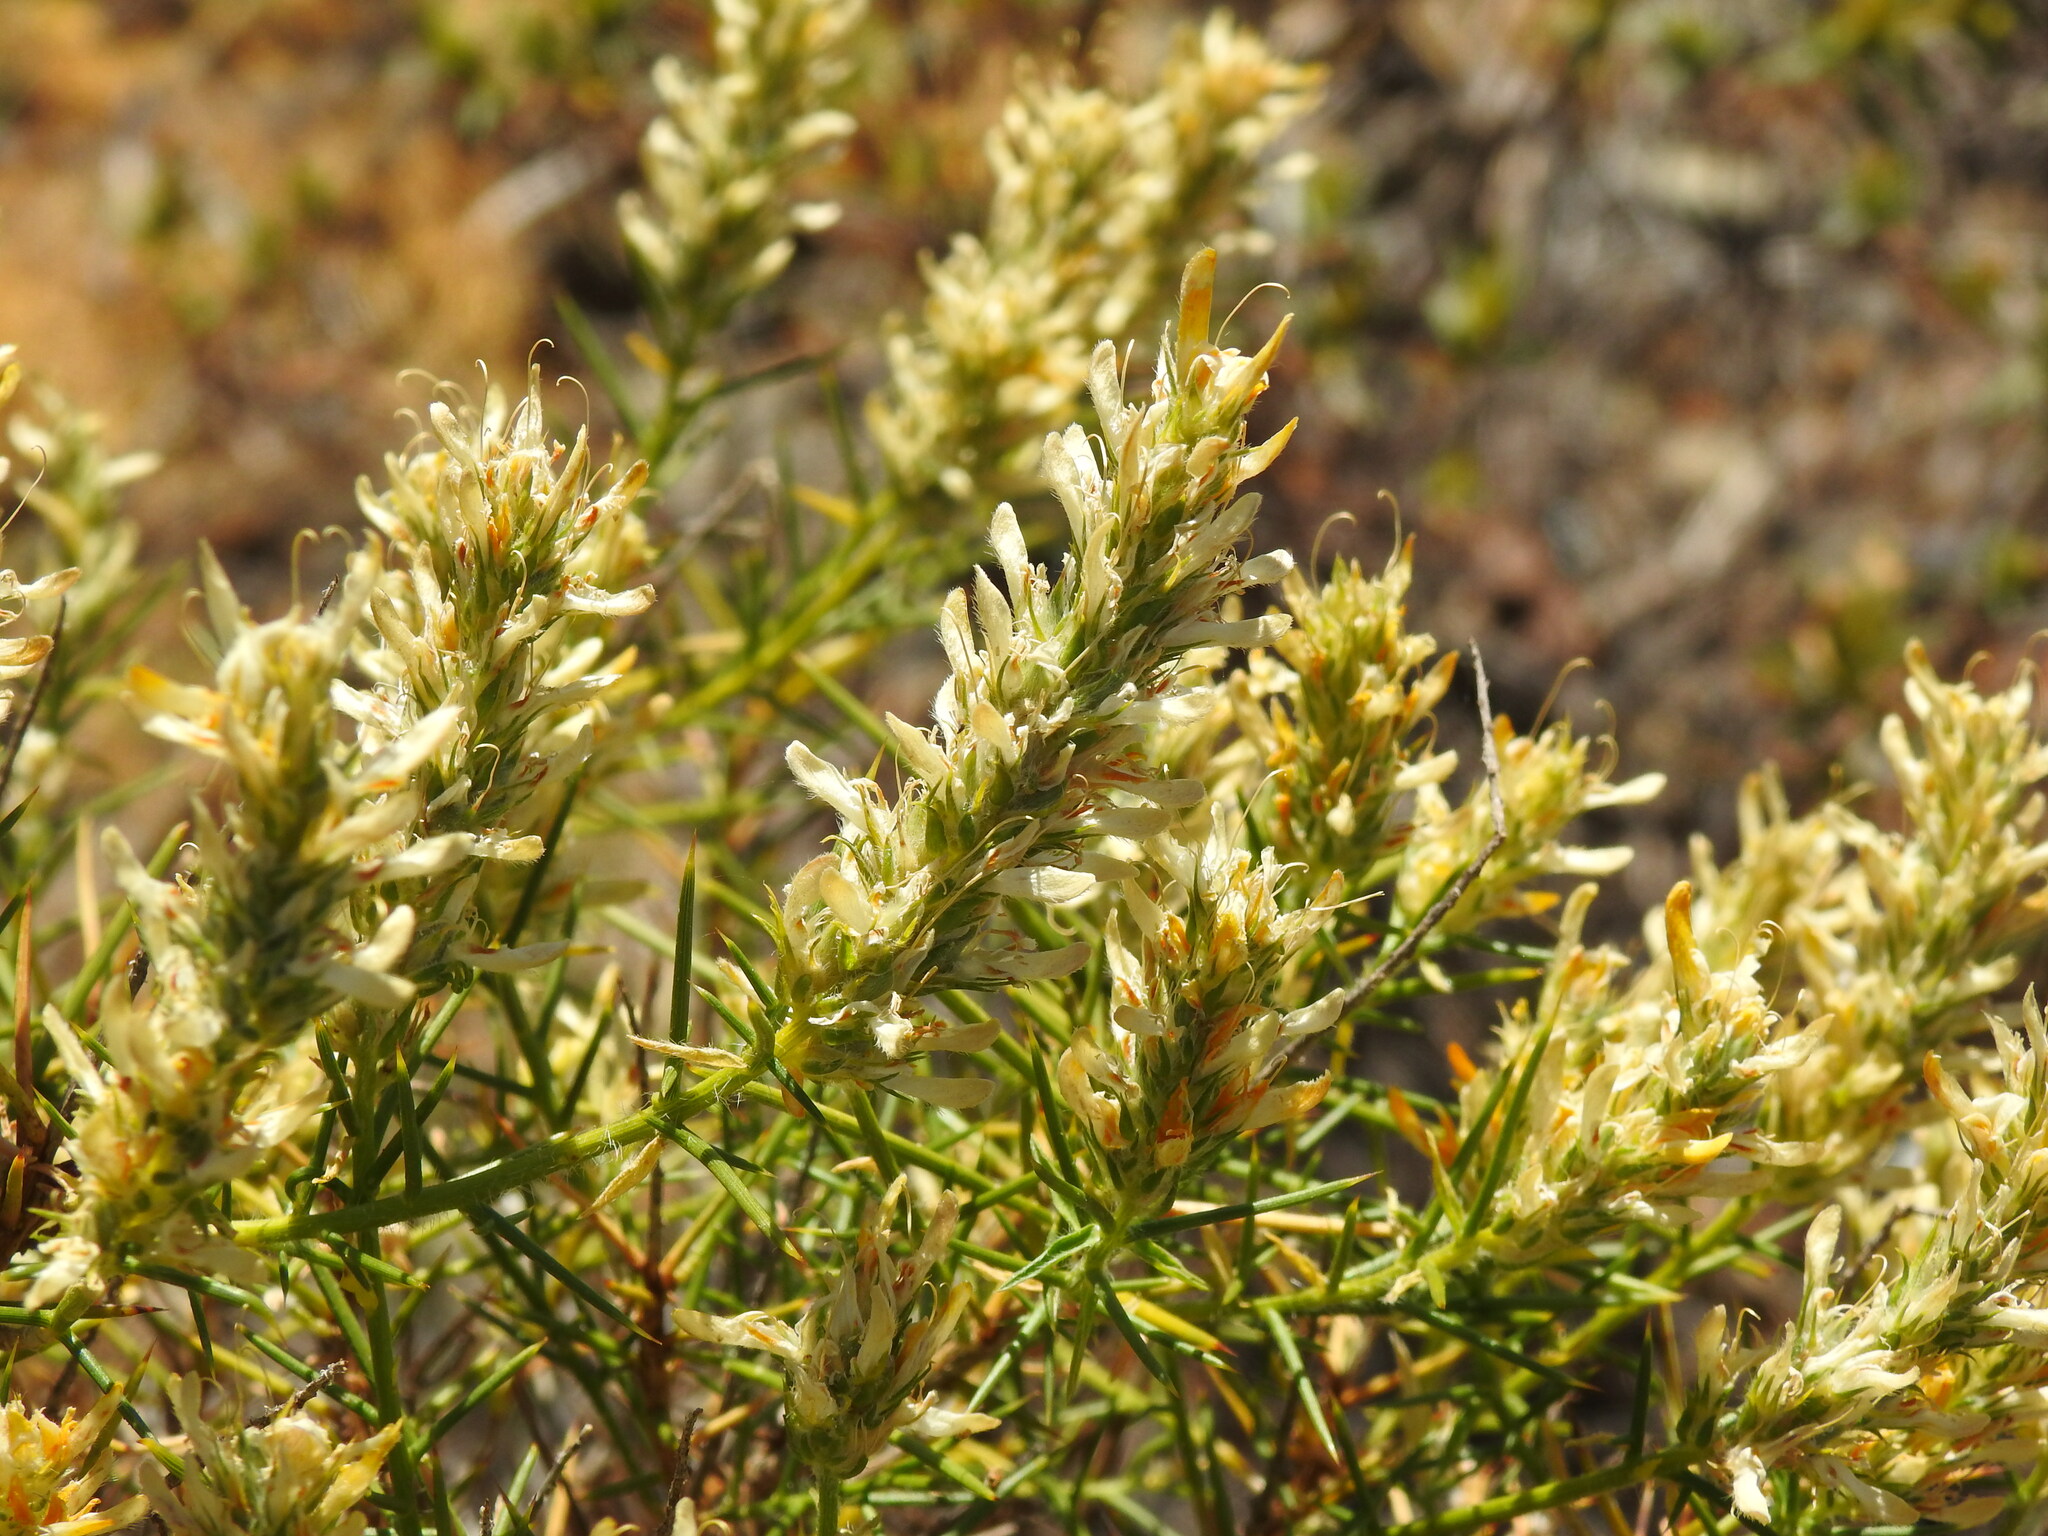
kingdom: Plantae
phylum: Tracheophyta
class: Magnoliopsida
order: Fabales
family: Fabaceae
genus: Genista
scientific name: Genista hirsuta
